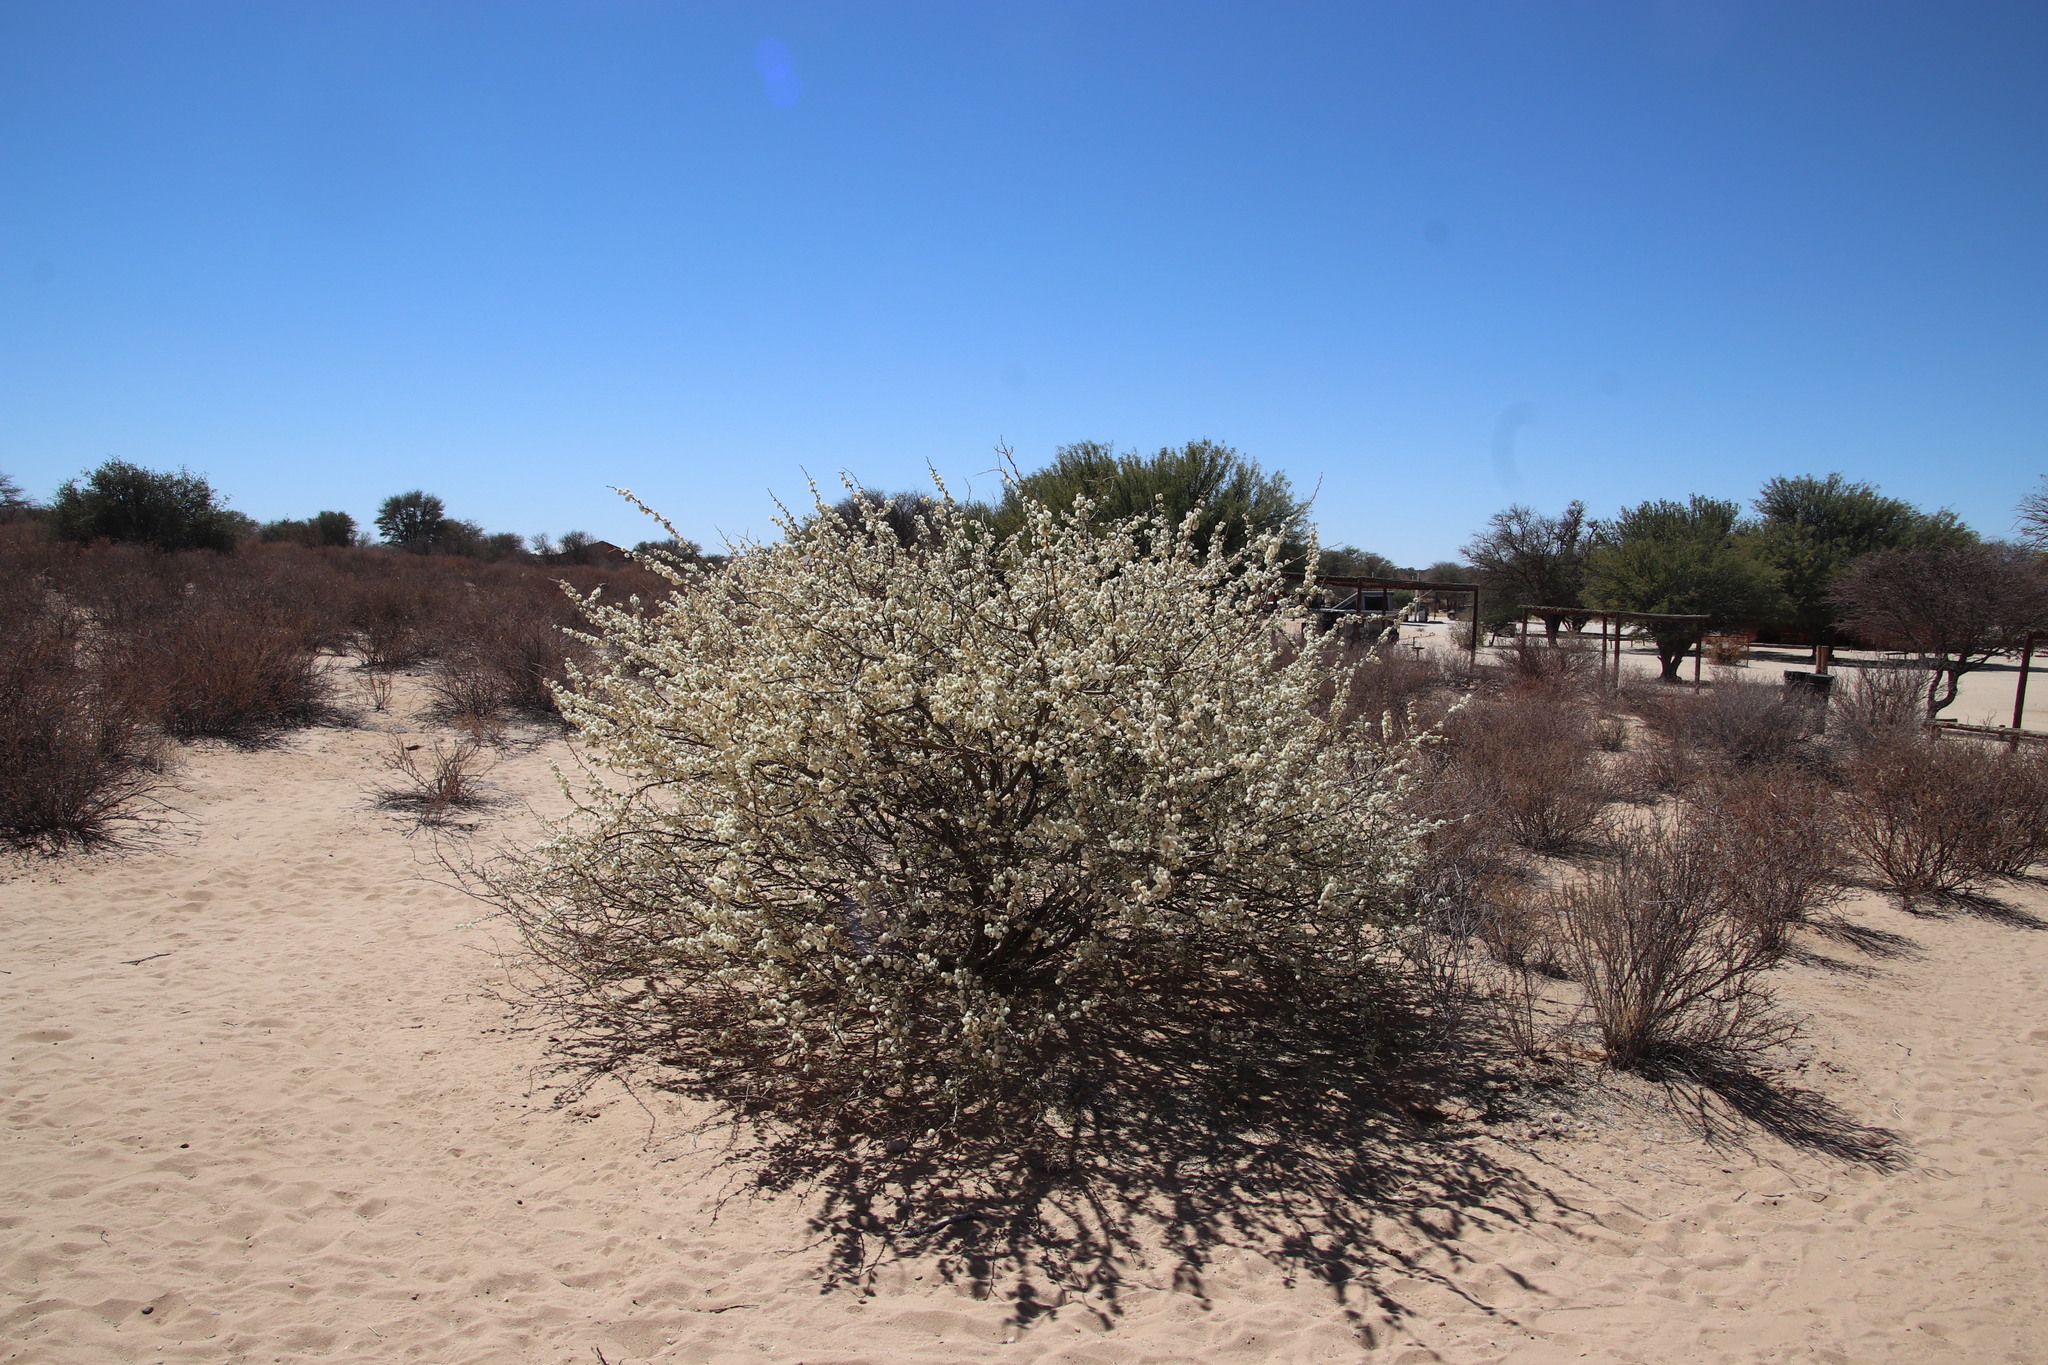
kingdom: Plantae
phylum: Tracheophyta
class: Magnoliopsida
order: Fabales
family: Fabaceae
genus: Senegalia
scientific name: Senegalia mellifera
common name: Hookthorn
